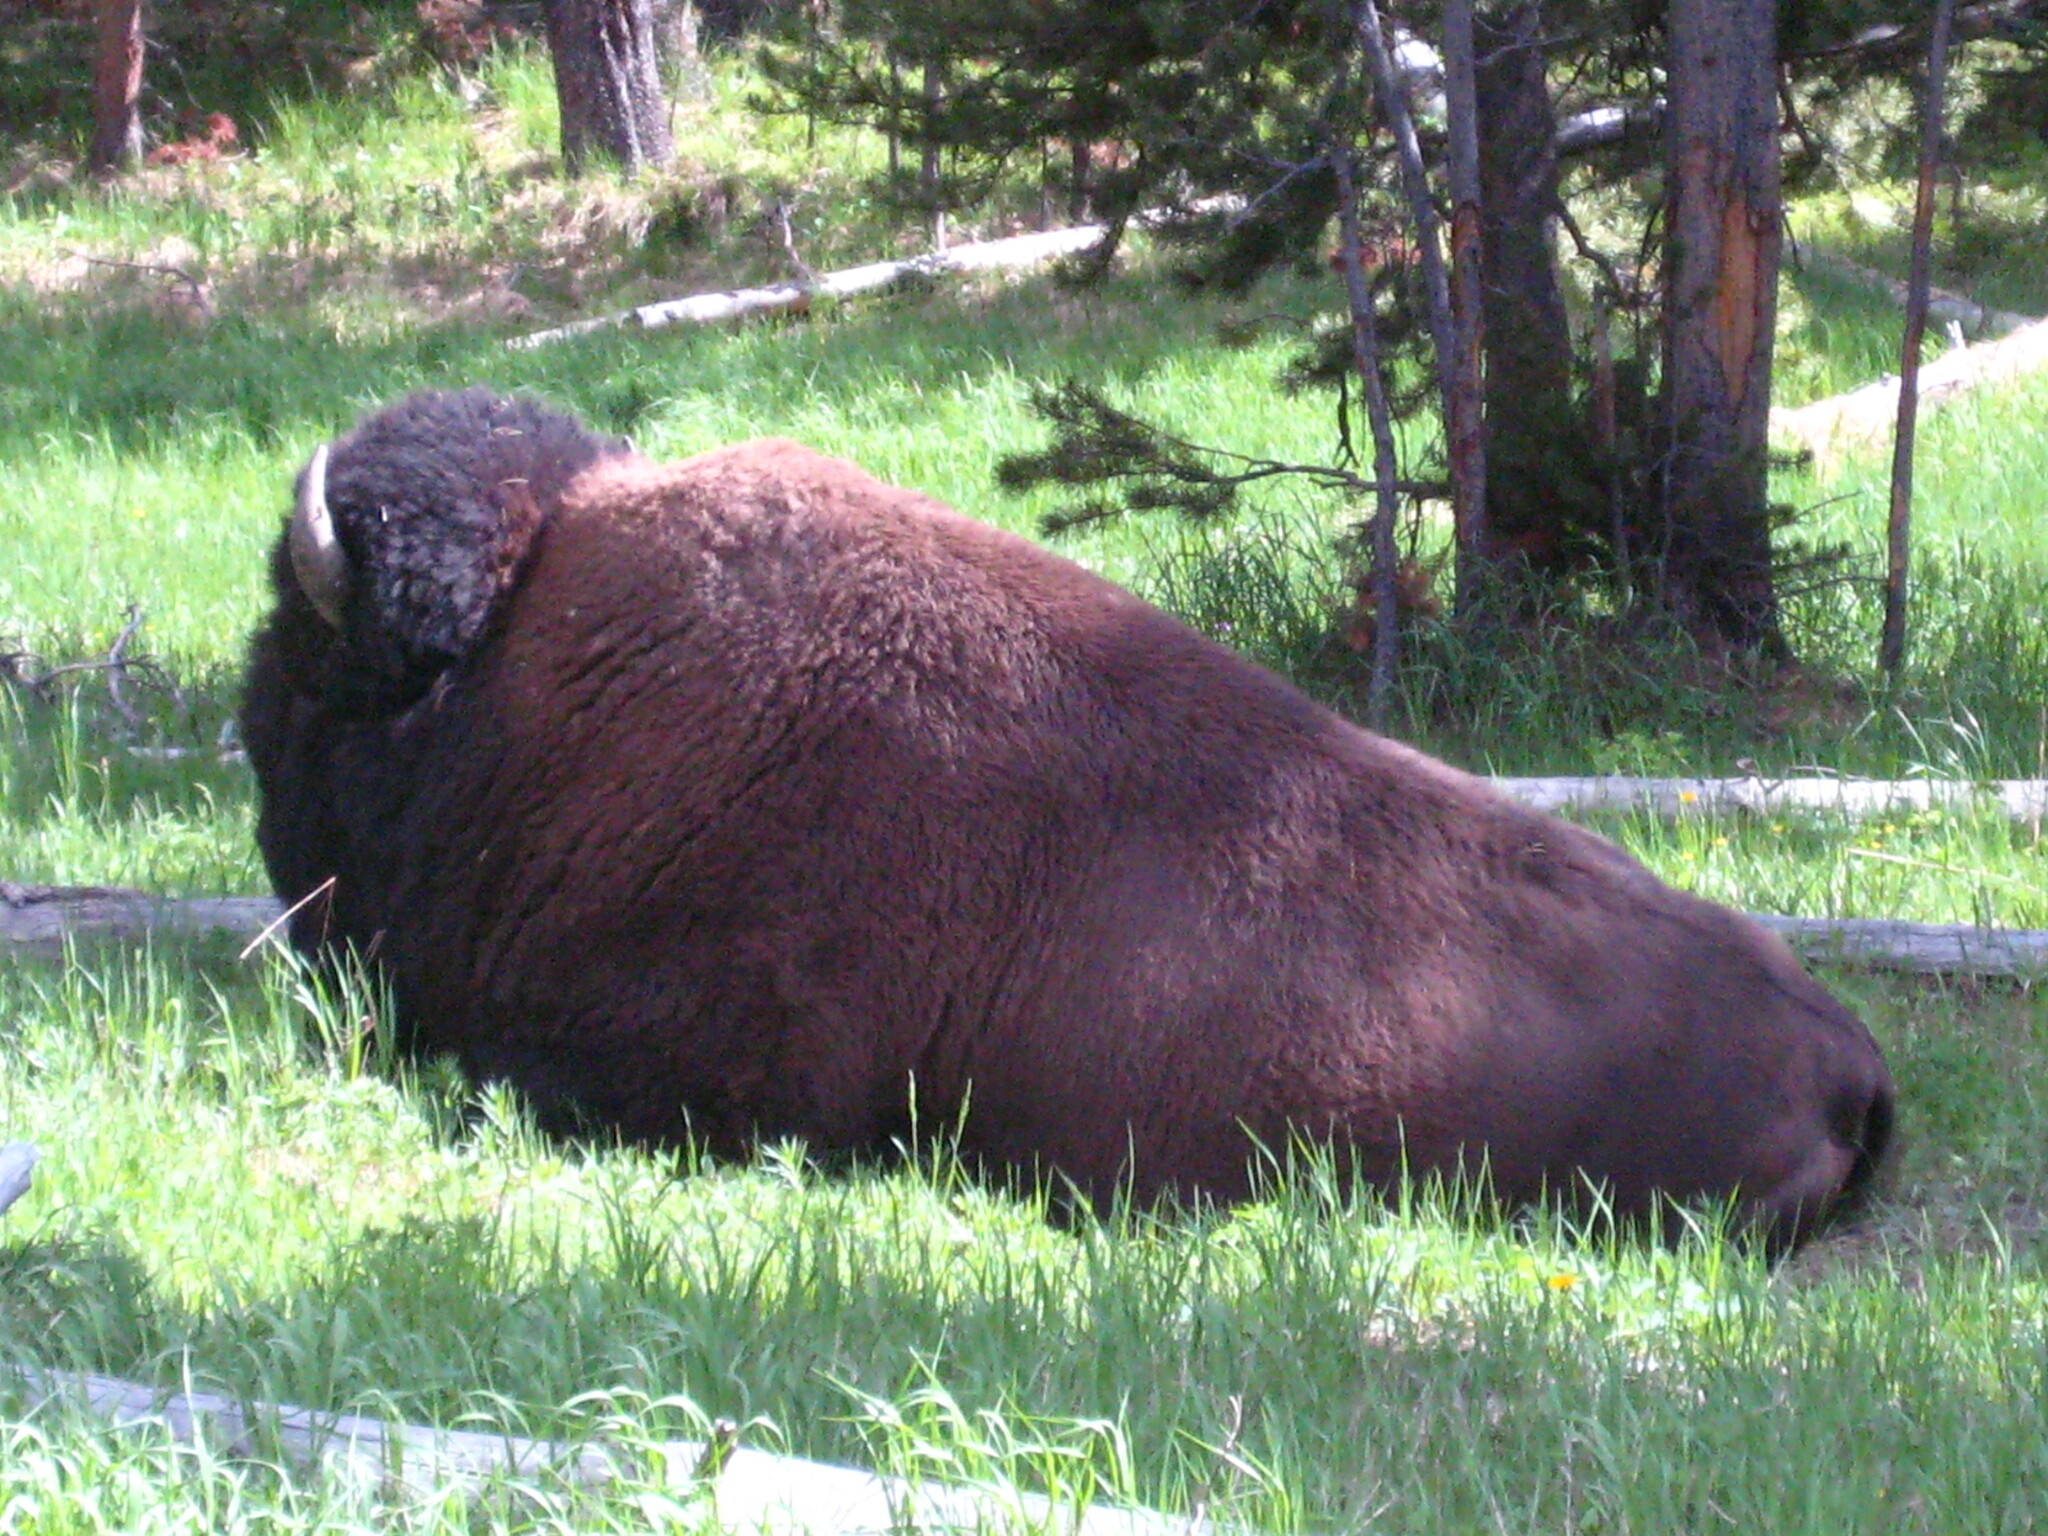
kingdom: Animalia
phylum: Chordata
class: Mammalia
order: Artiodactyla
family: Bovidae
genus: Bison
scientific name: Bison bison
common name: American bison
